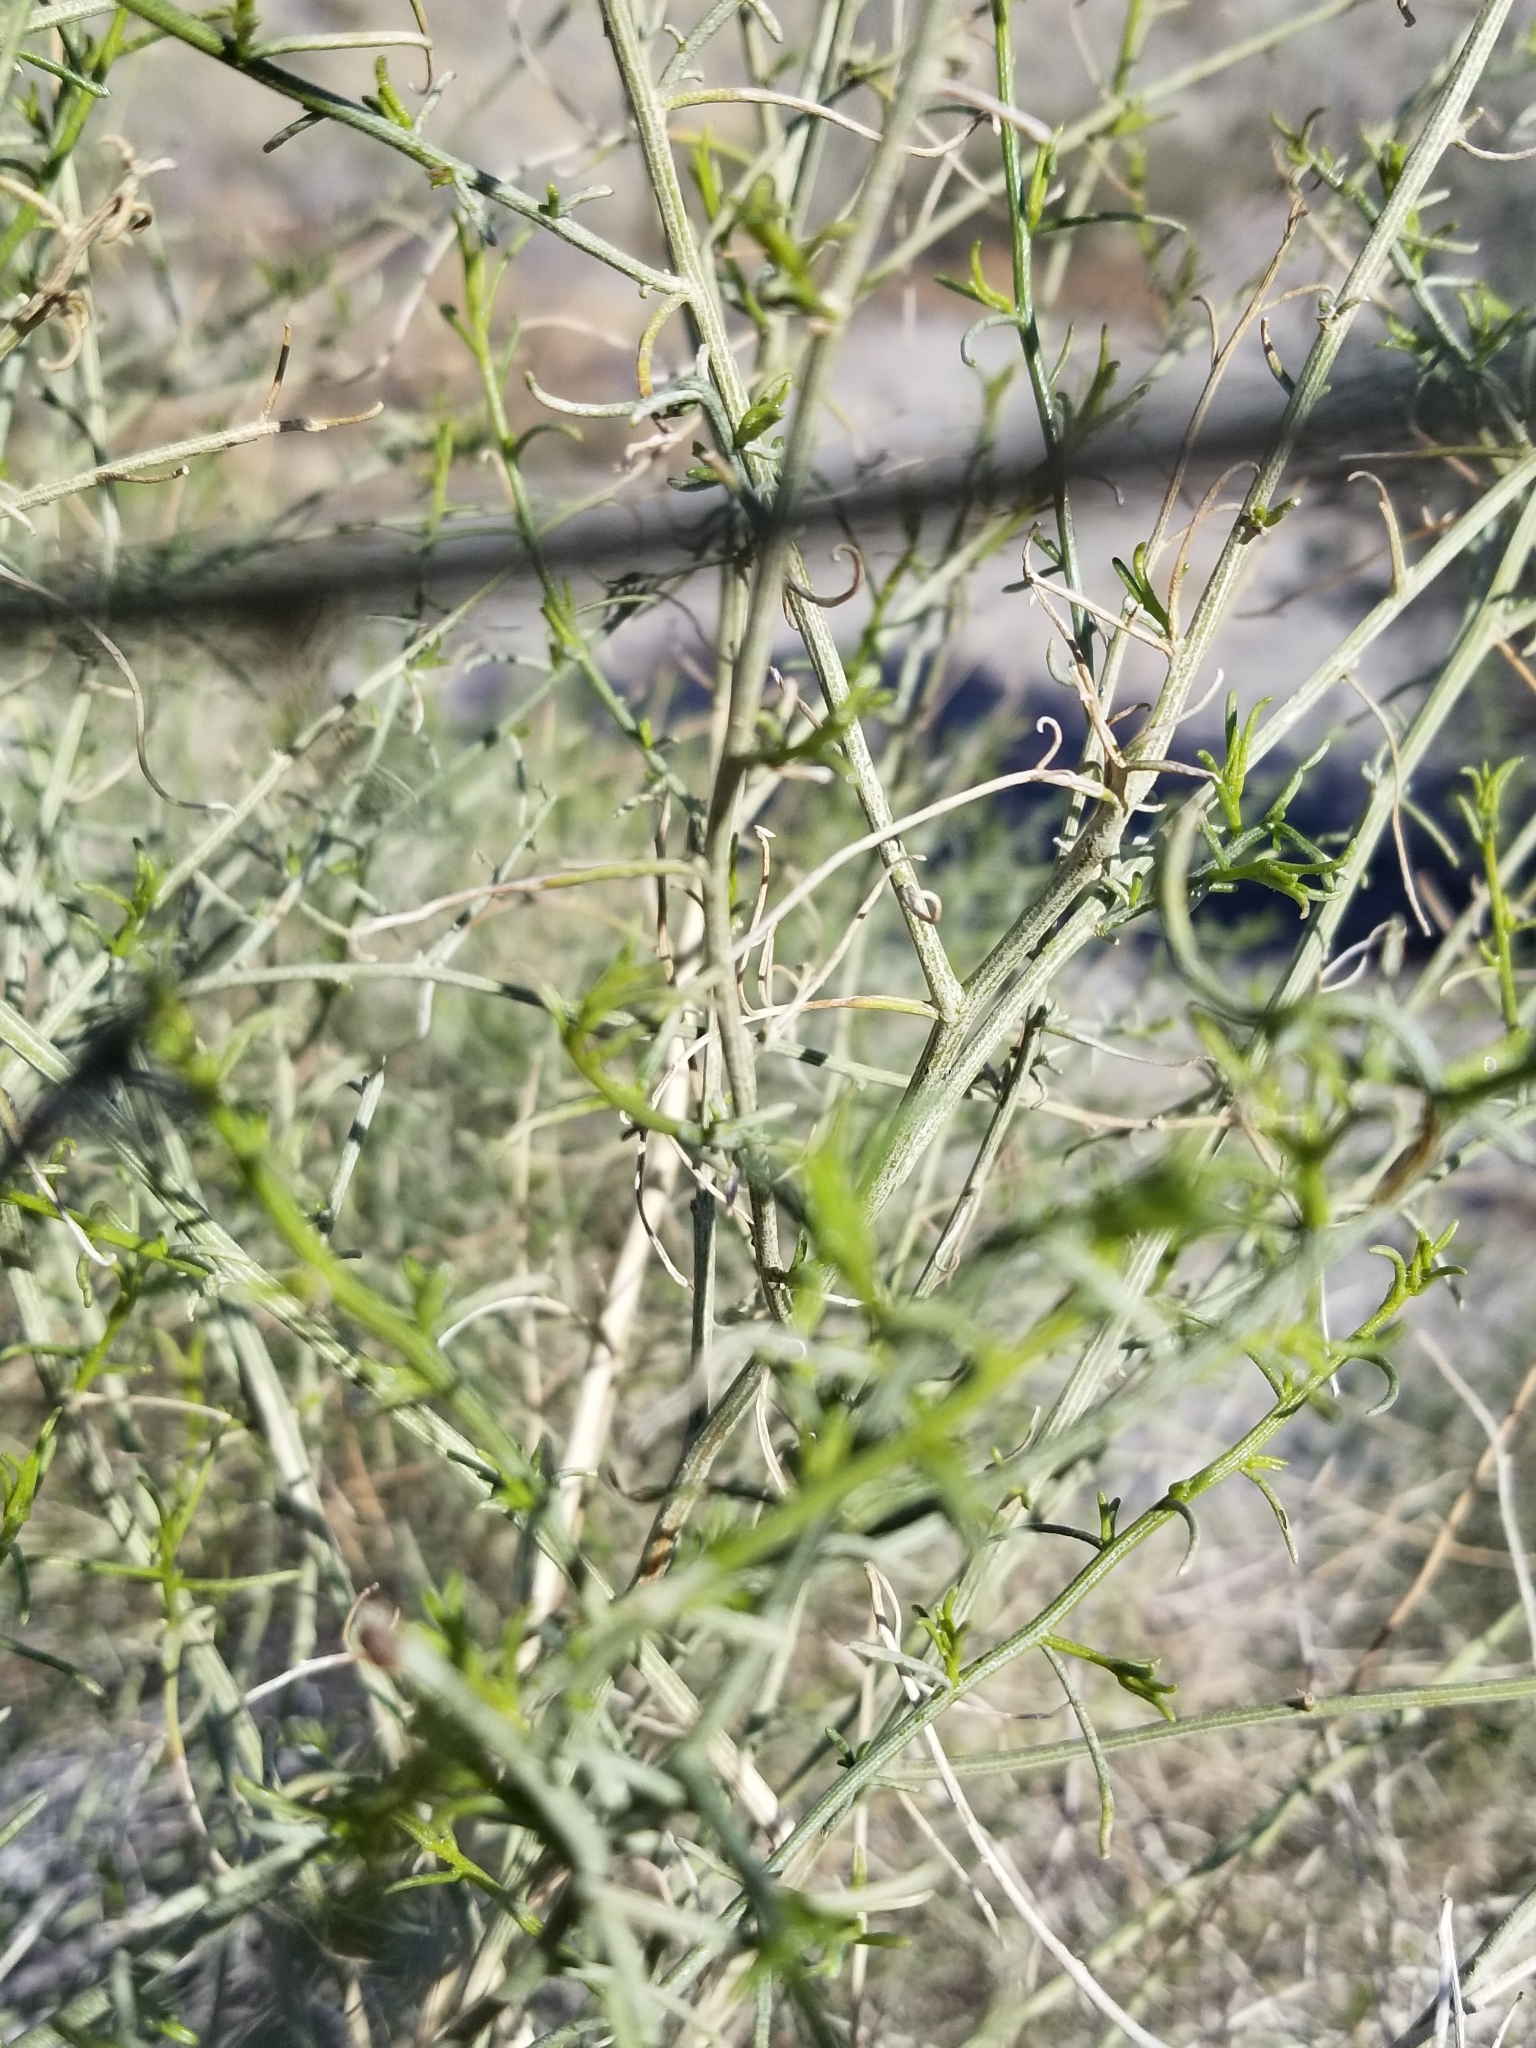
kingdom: Plantae
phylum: Tracheophyta
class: Magnoliopsida
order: Asterales
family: Asteraceae
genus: Ambrosia
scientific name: Ambrosia salsola
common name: Burrobrush
